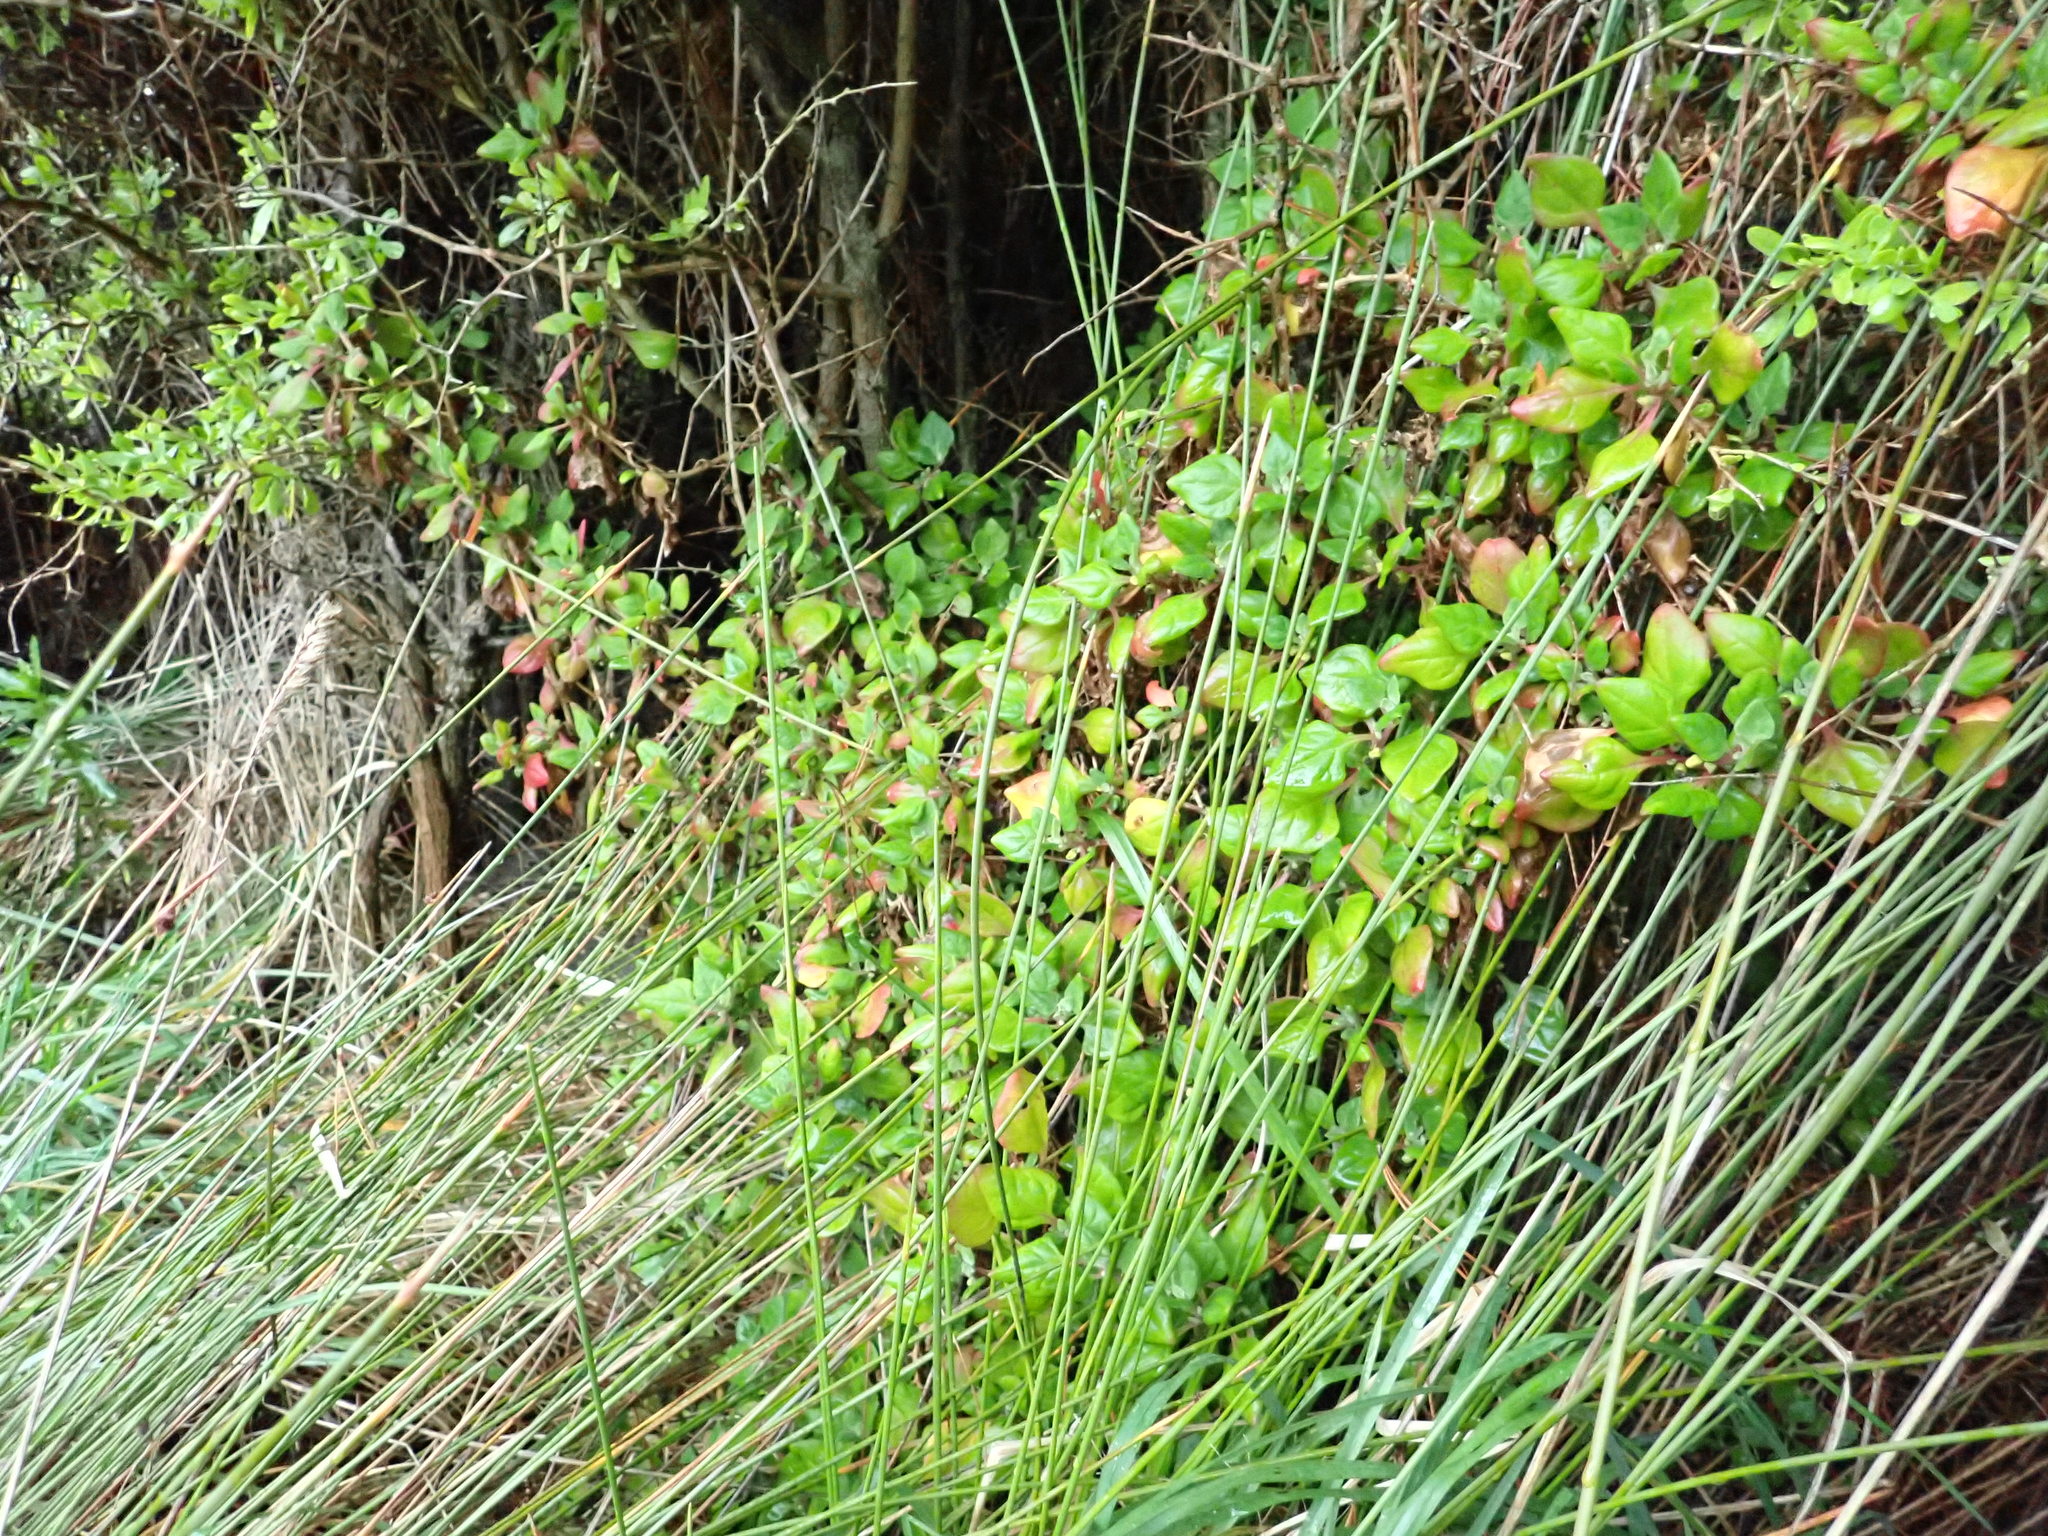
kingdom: Plantae
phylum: Tracheophyta
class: Magnoliopsida
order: Solanales
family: Solanaceae
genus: Lycium
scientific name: Lycium ferocissimum
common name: African boxthorn
